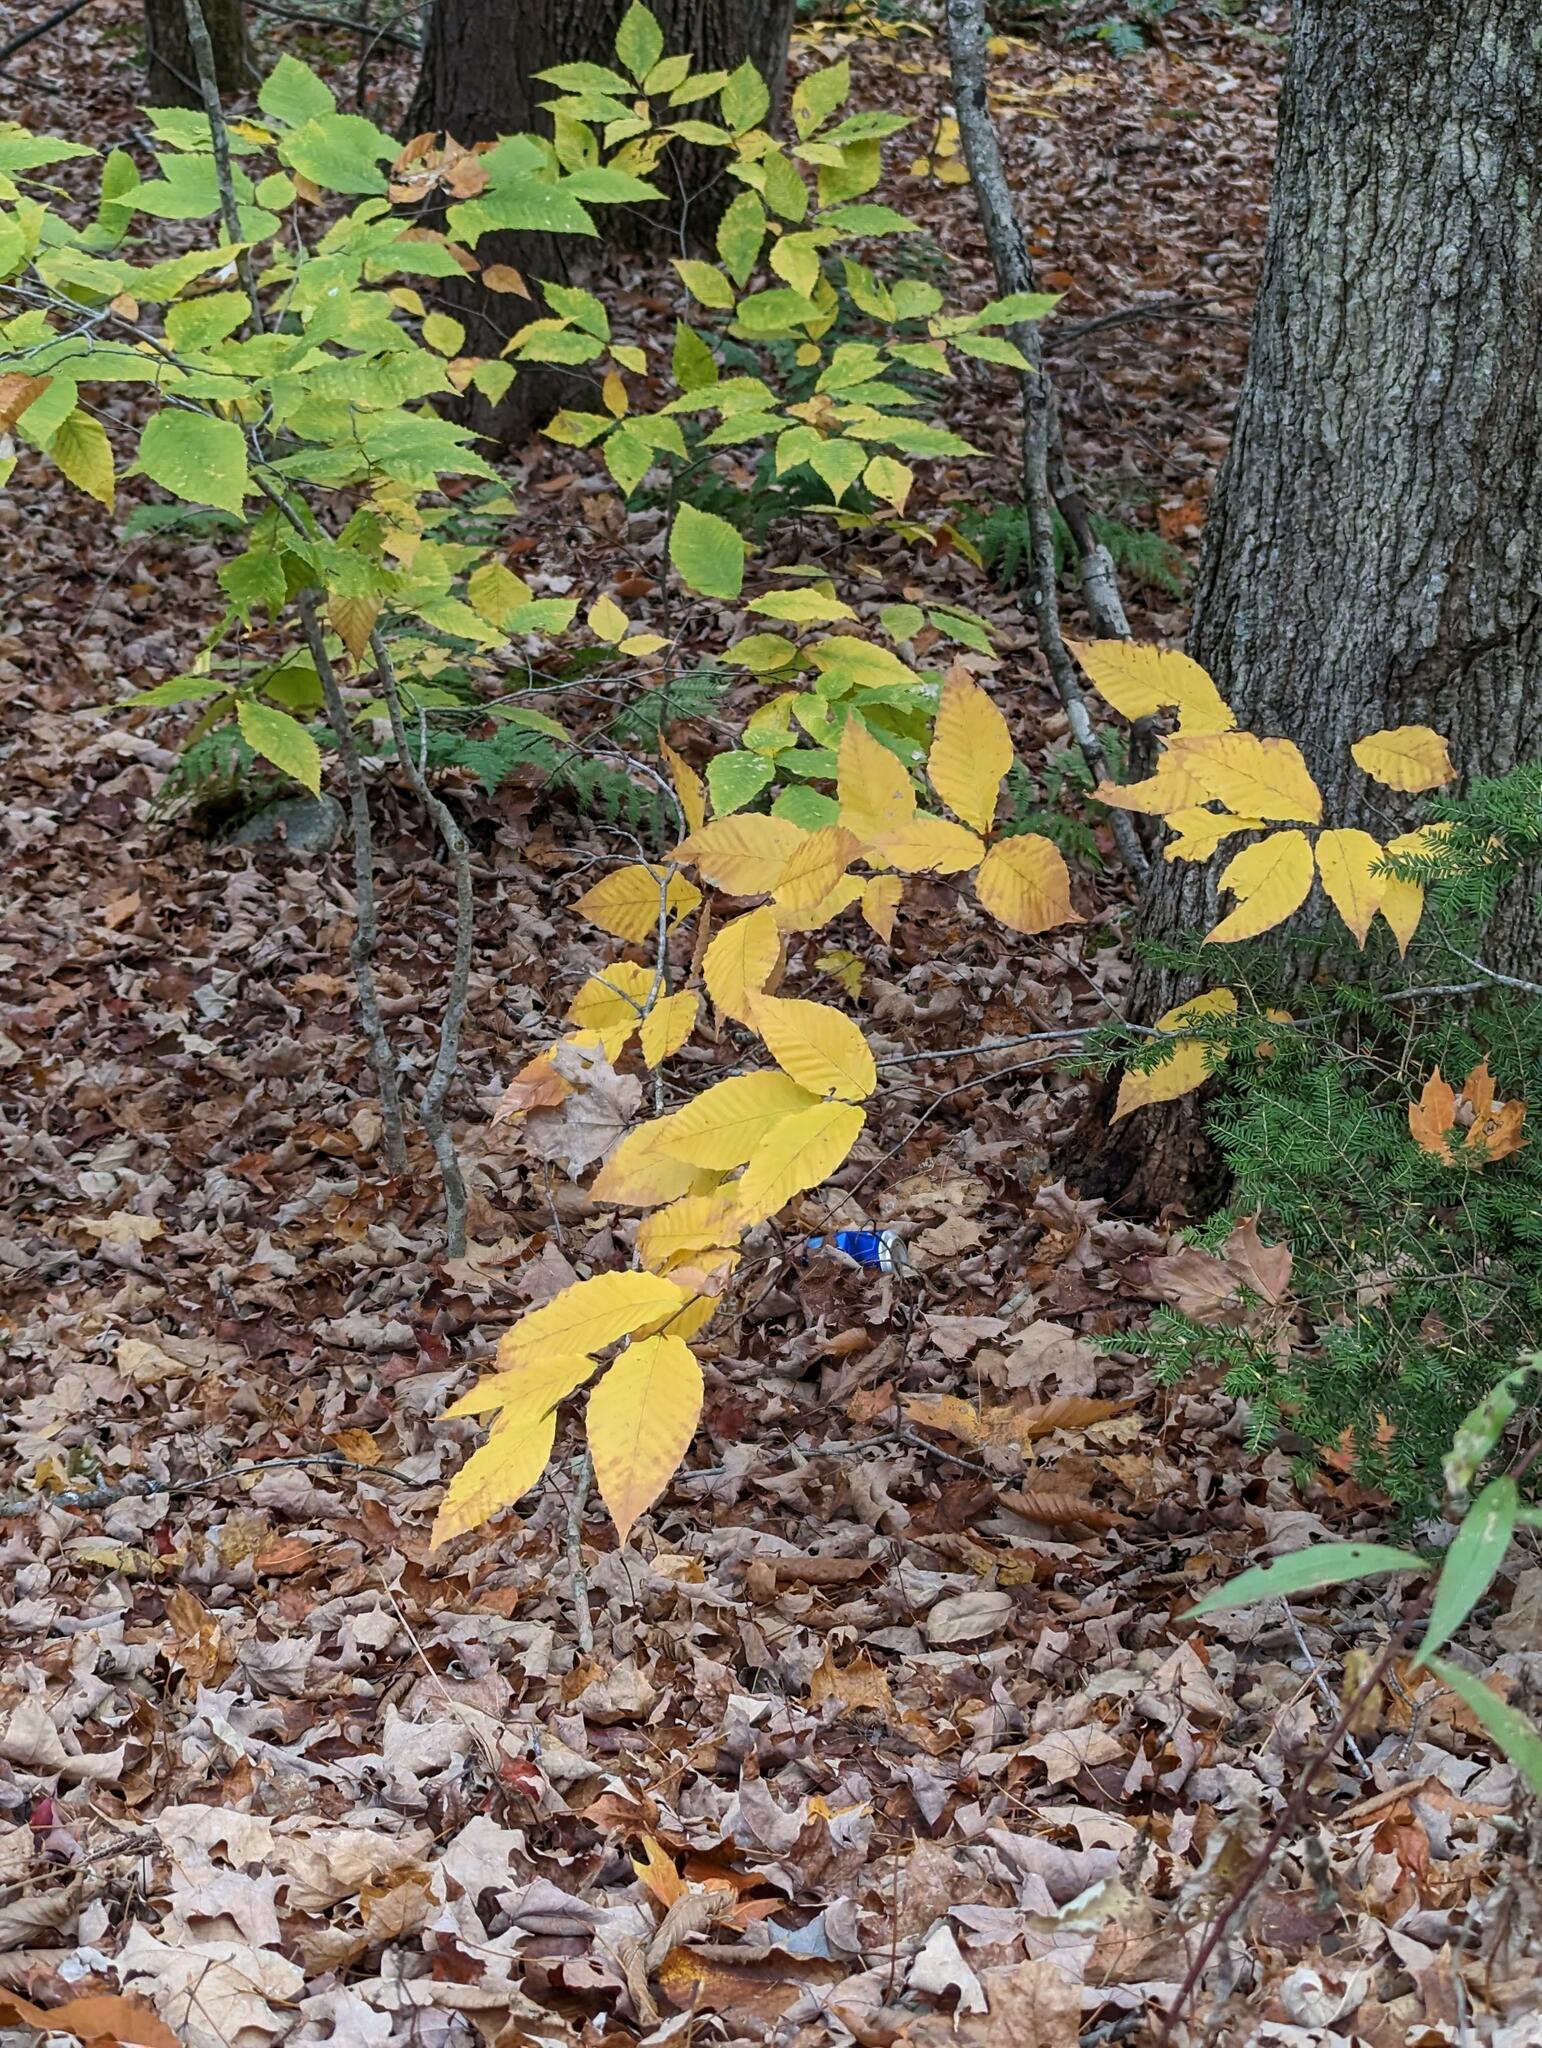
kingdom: Plantae
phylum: Tracheophyta
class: Magnoliopsida
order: Fagales
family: Fagaceae
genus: Fagus
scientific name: Fagus grandifolia
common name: American beech
